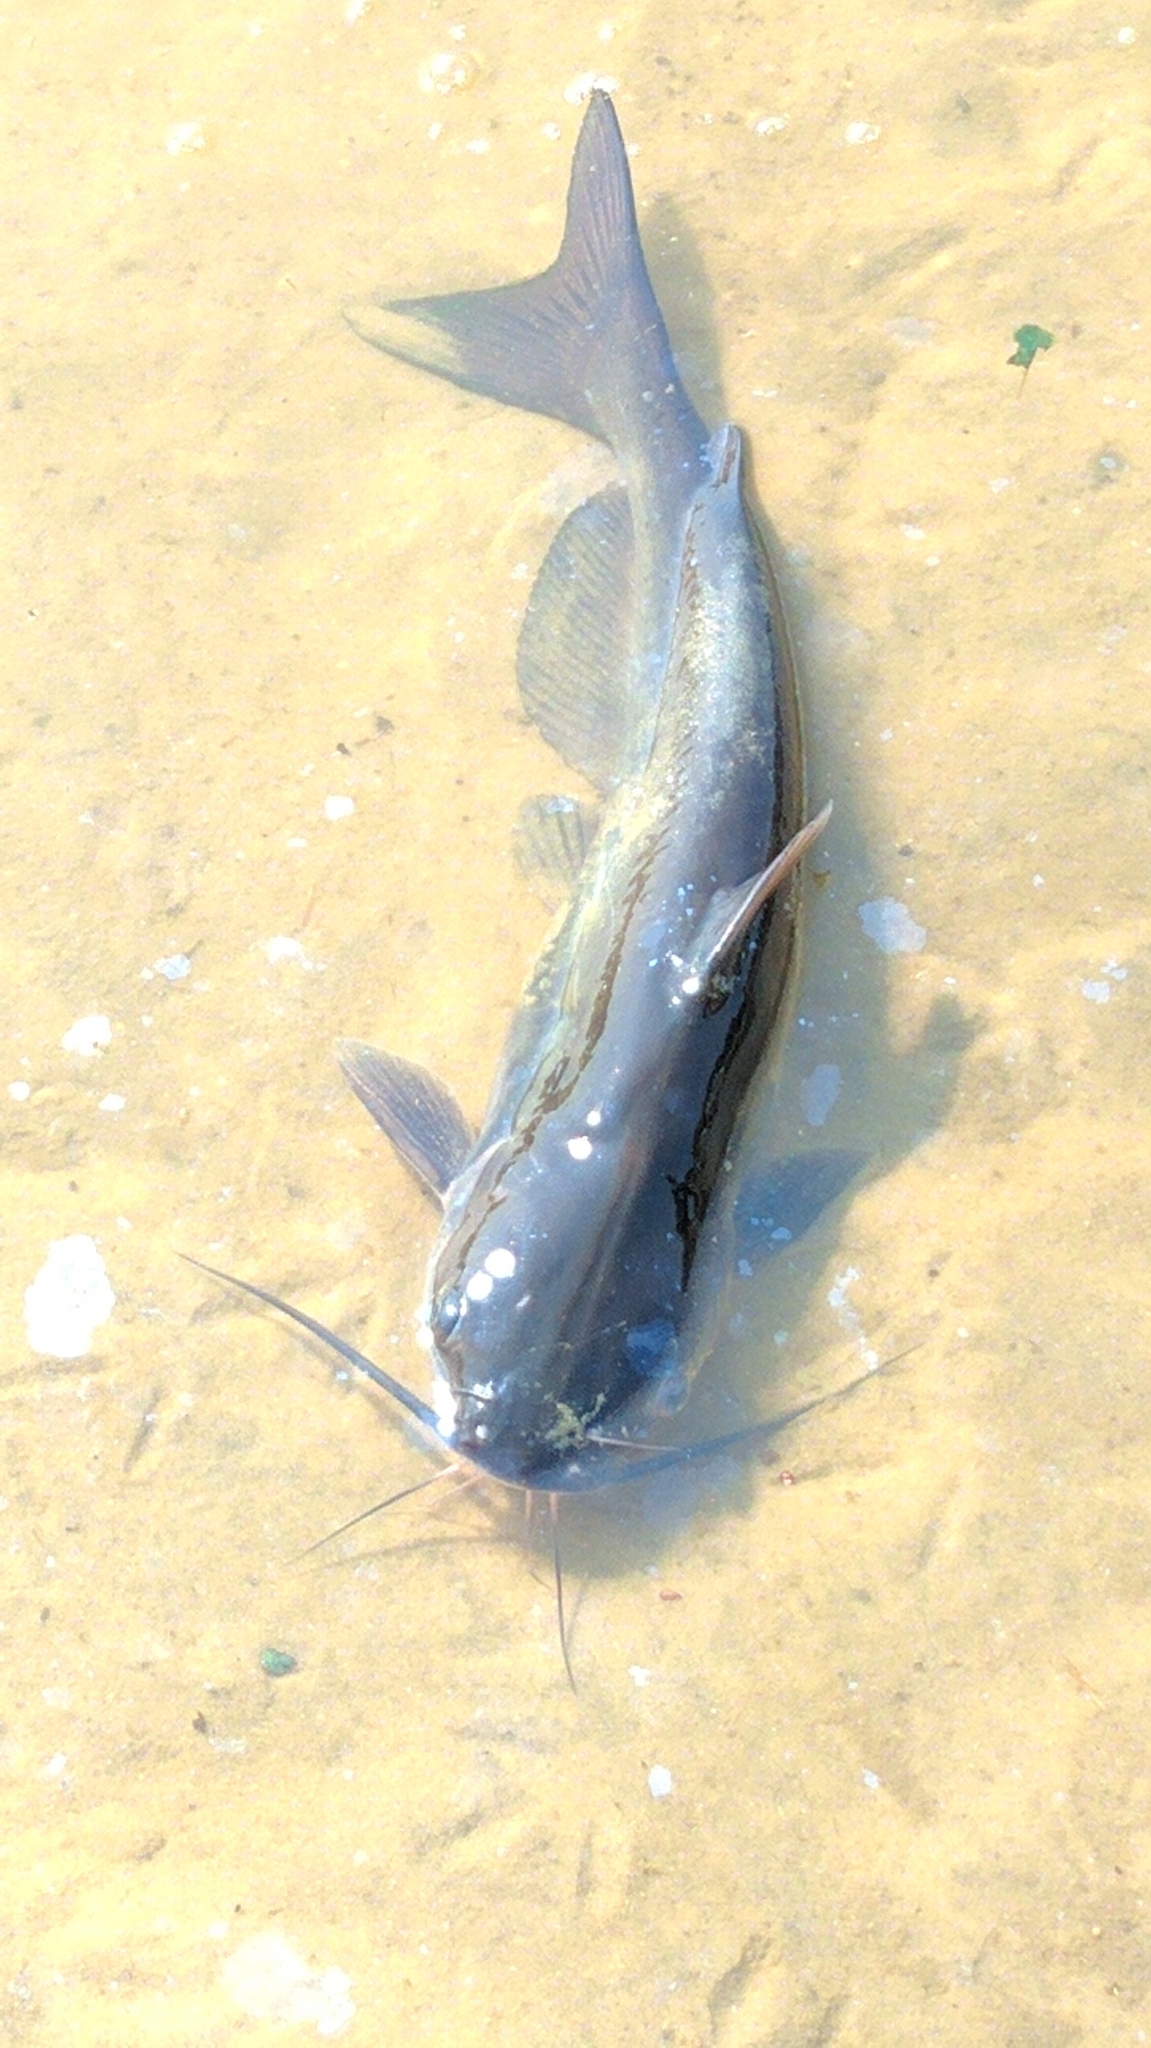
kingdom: Animalia
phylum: Chordata
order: Siluriformes
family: Ictaluridae
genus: Ictalurus
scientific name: Ictalurus punctatus
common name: Channel catfish
